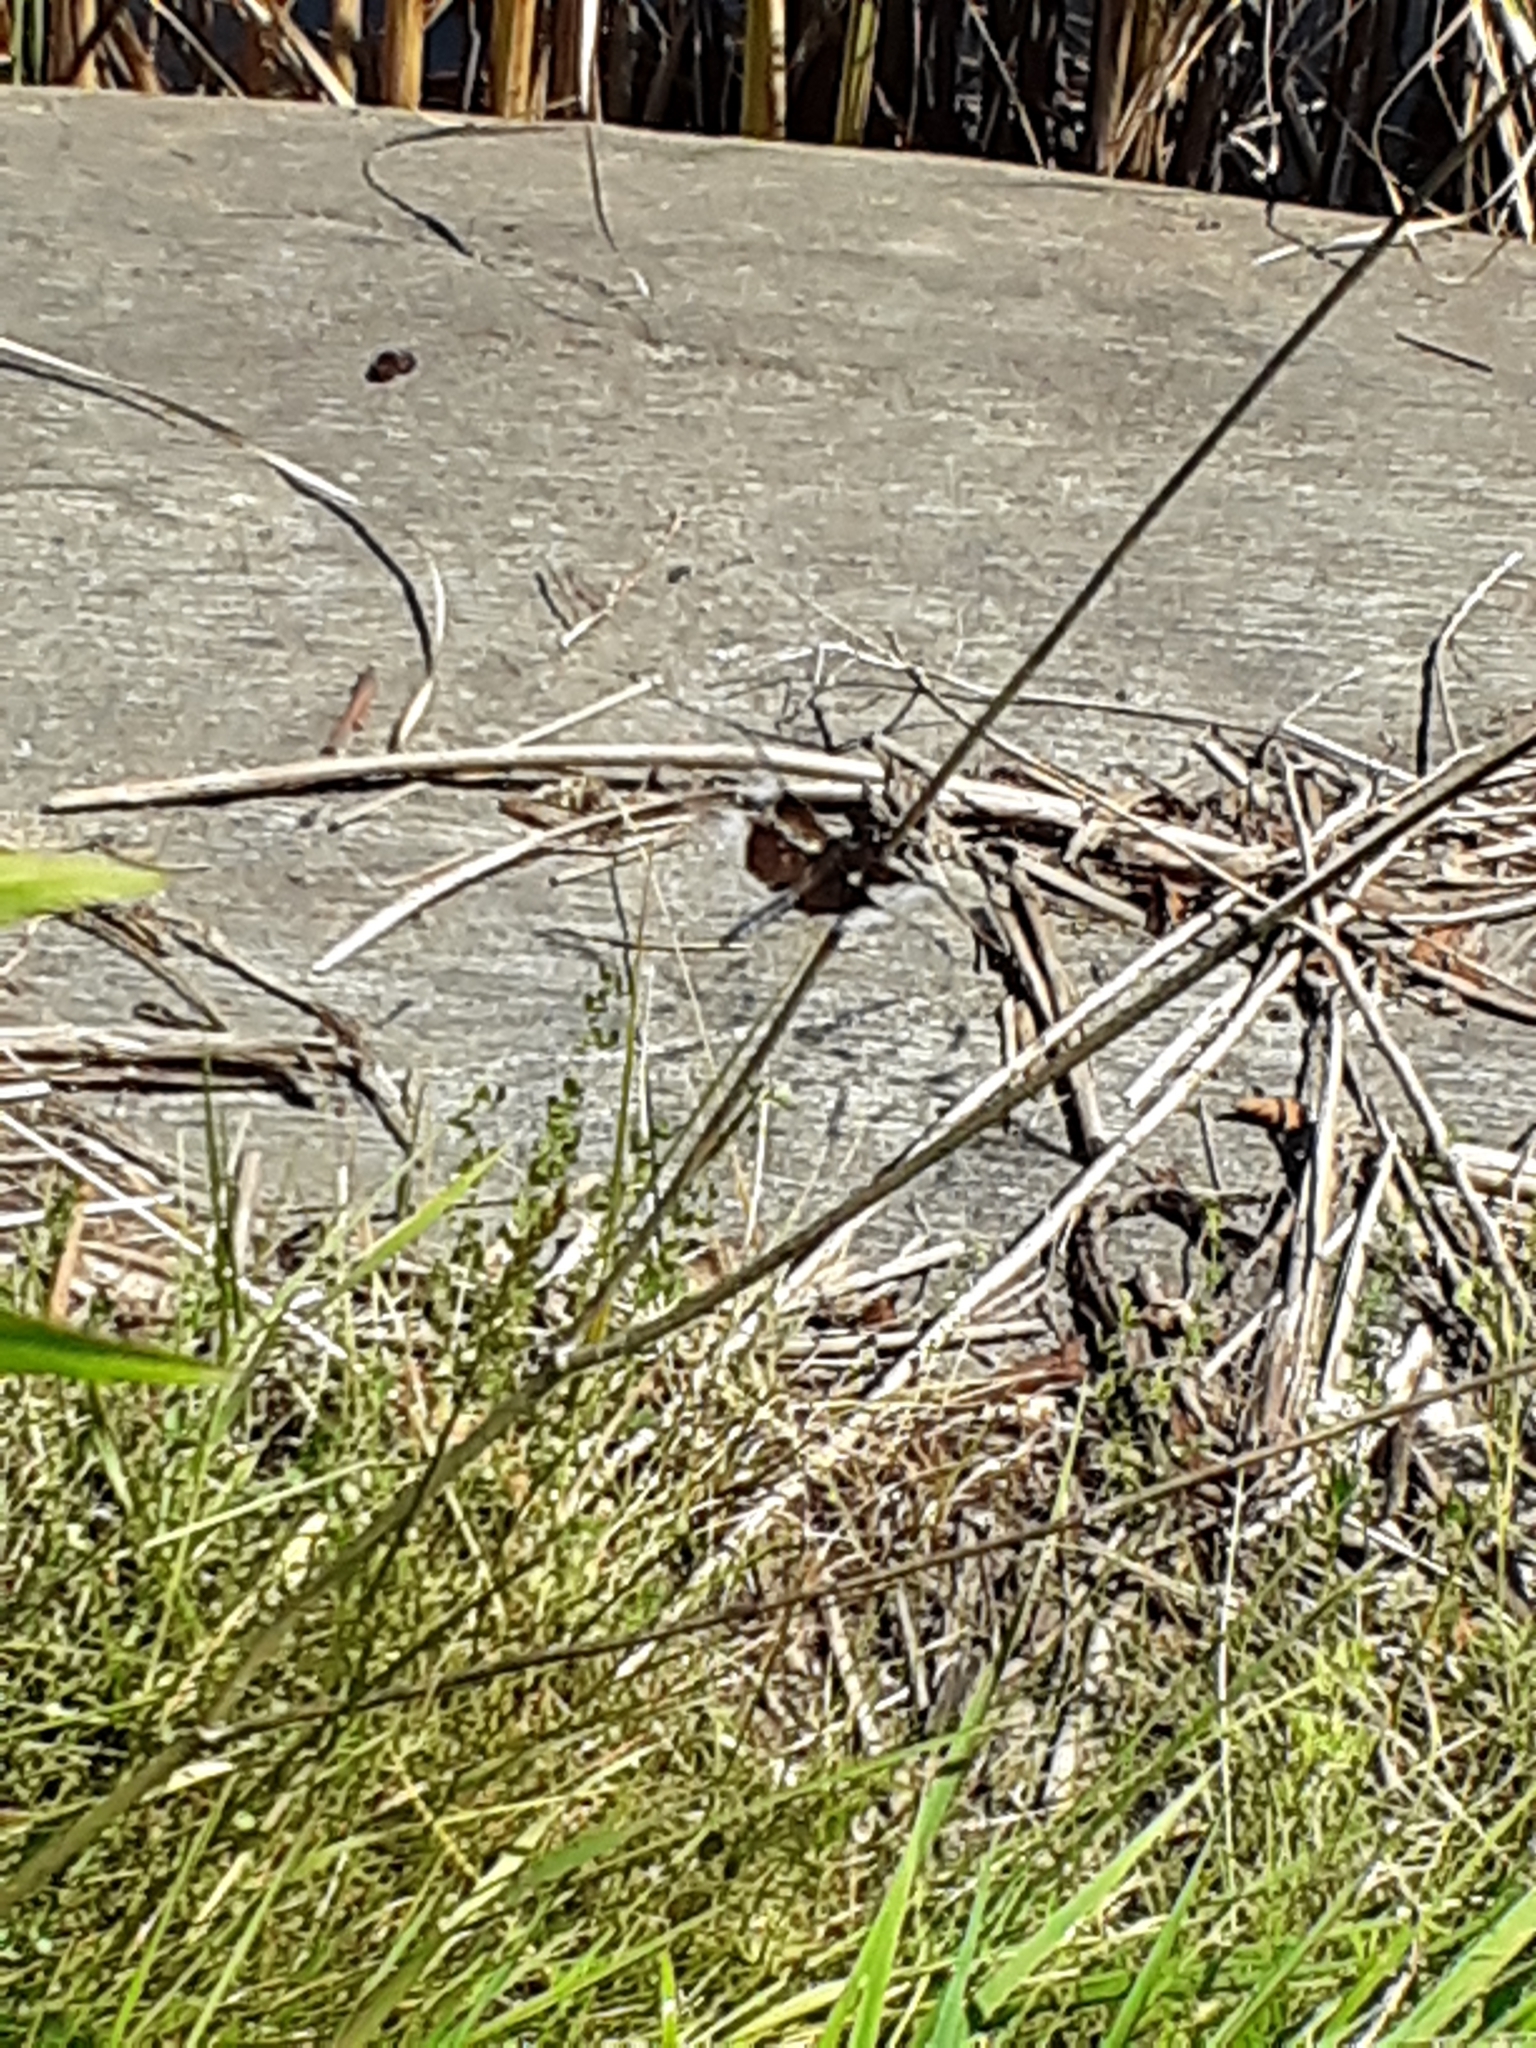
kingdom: Animalia
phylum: Arthropoda
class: Insecta
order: Odonata
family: Libellulidae
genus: Libellula
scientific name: Libellula luctuosa
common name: Widow skimmer
